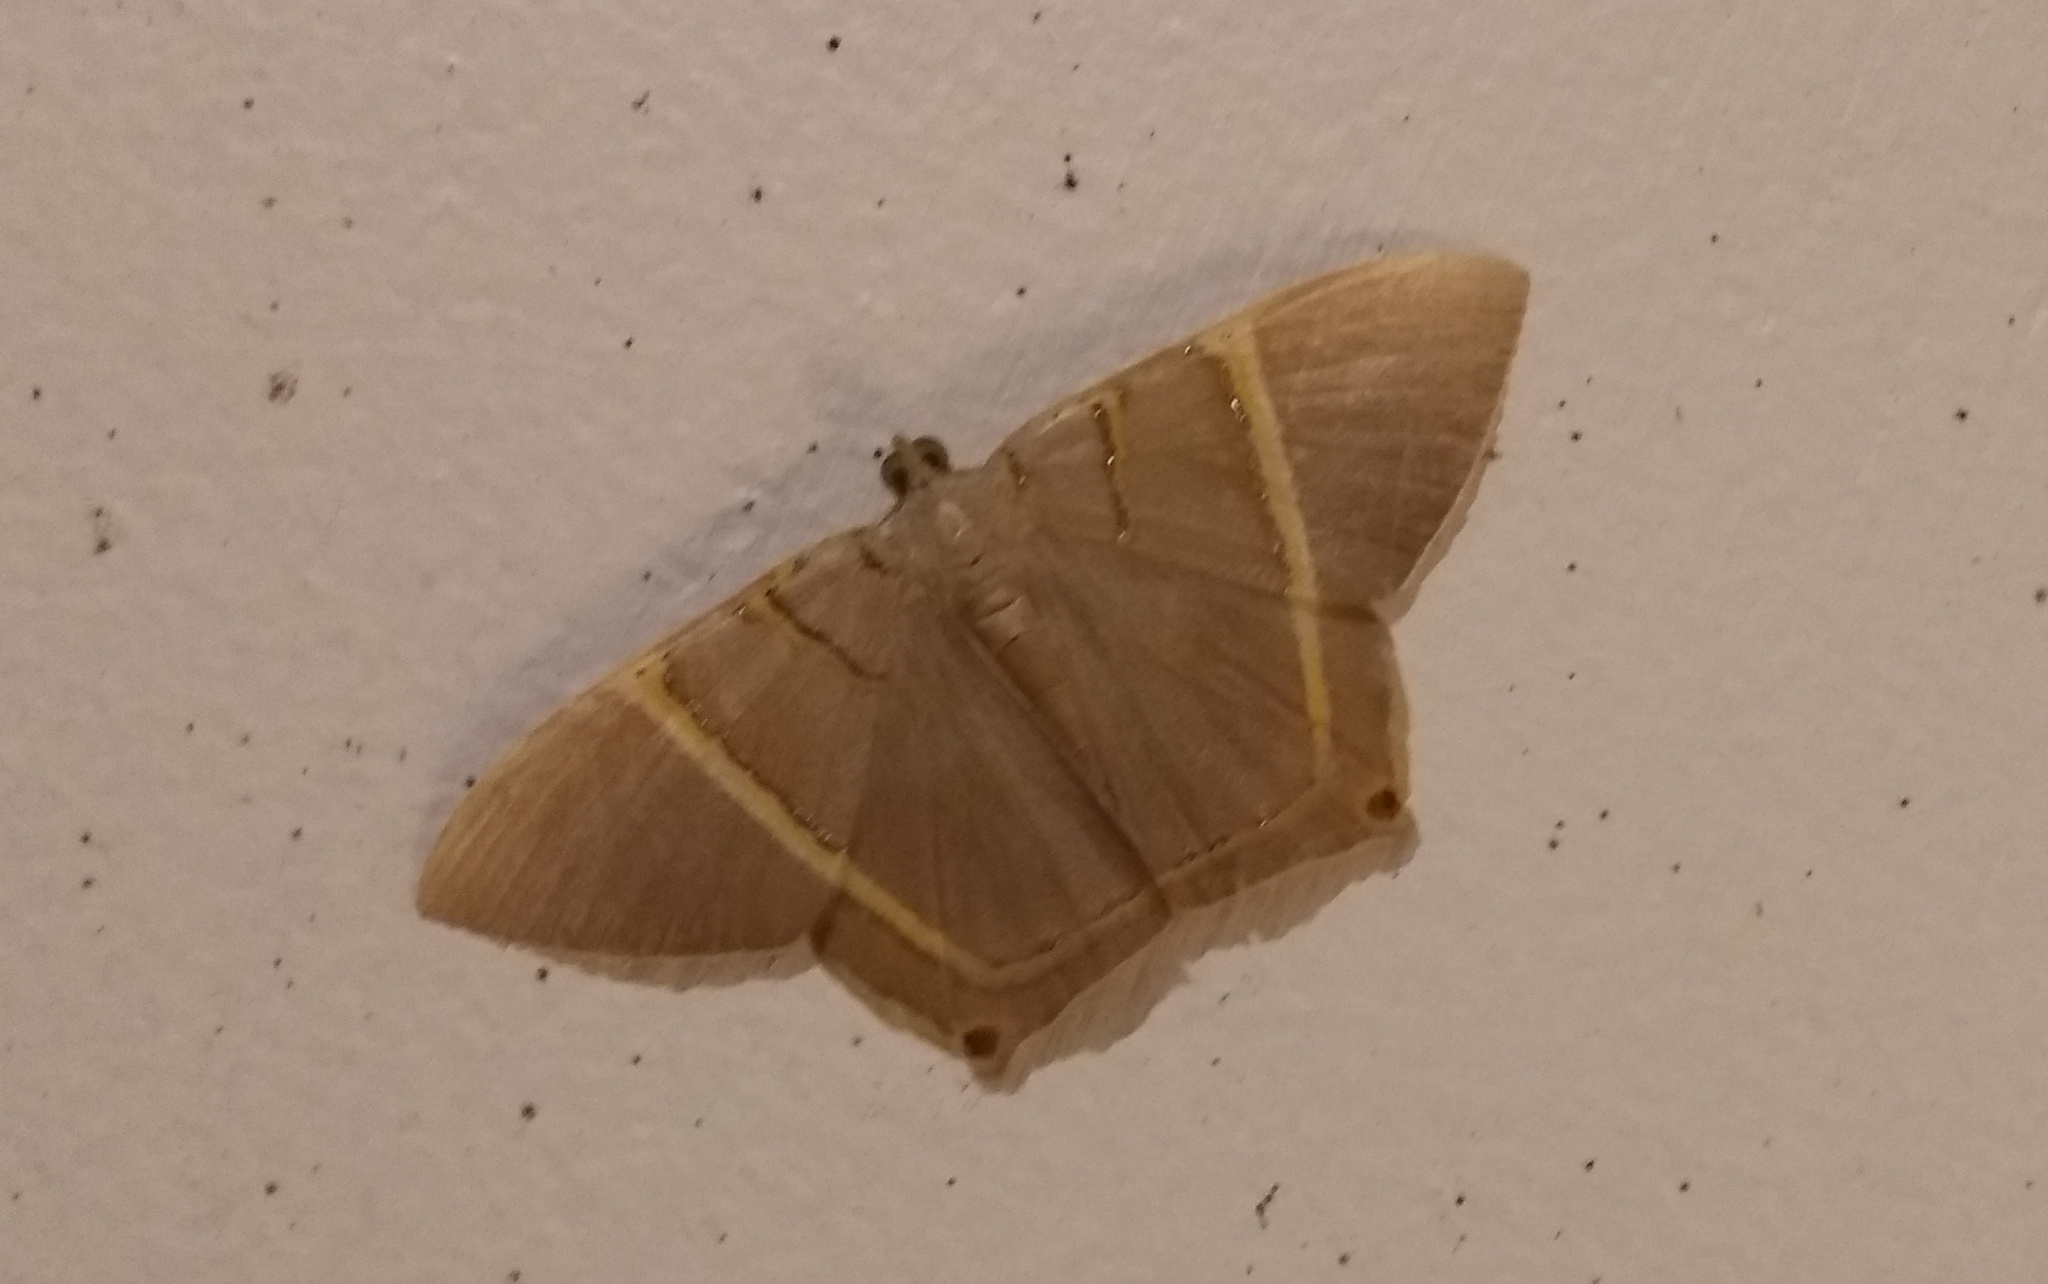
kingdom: Animalia
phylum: Arthropoda
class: Insecta
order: Lepidoptera
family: Geometridae
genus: Phrygionis
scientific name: Phrygionis polita
